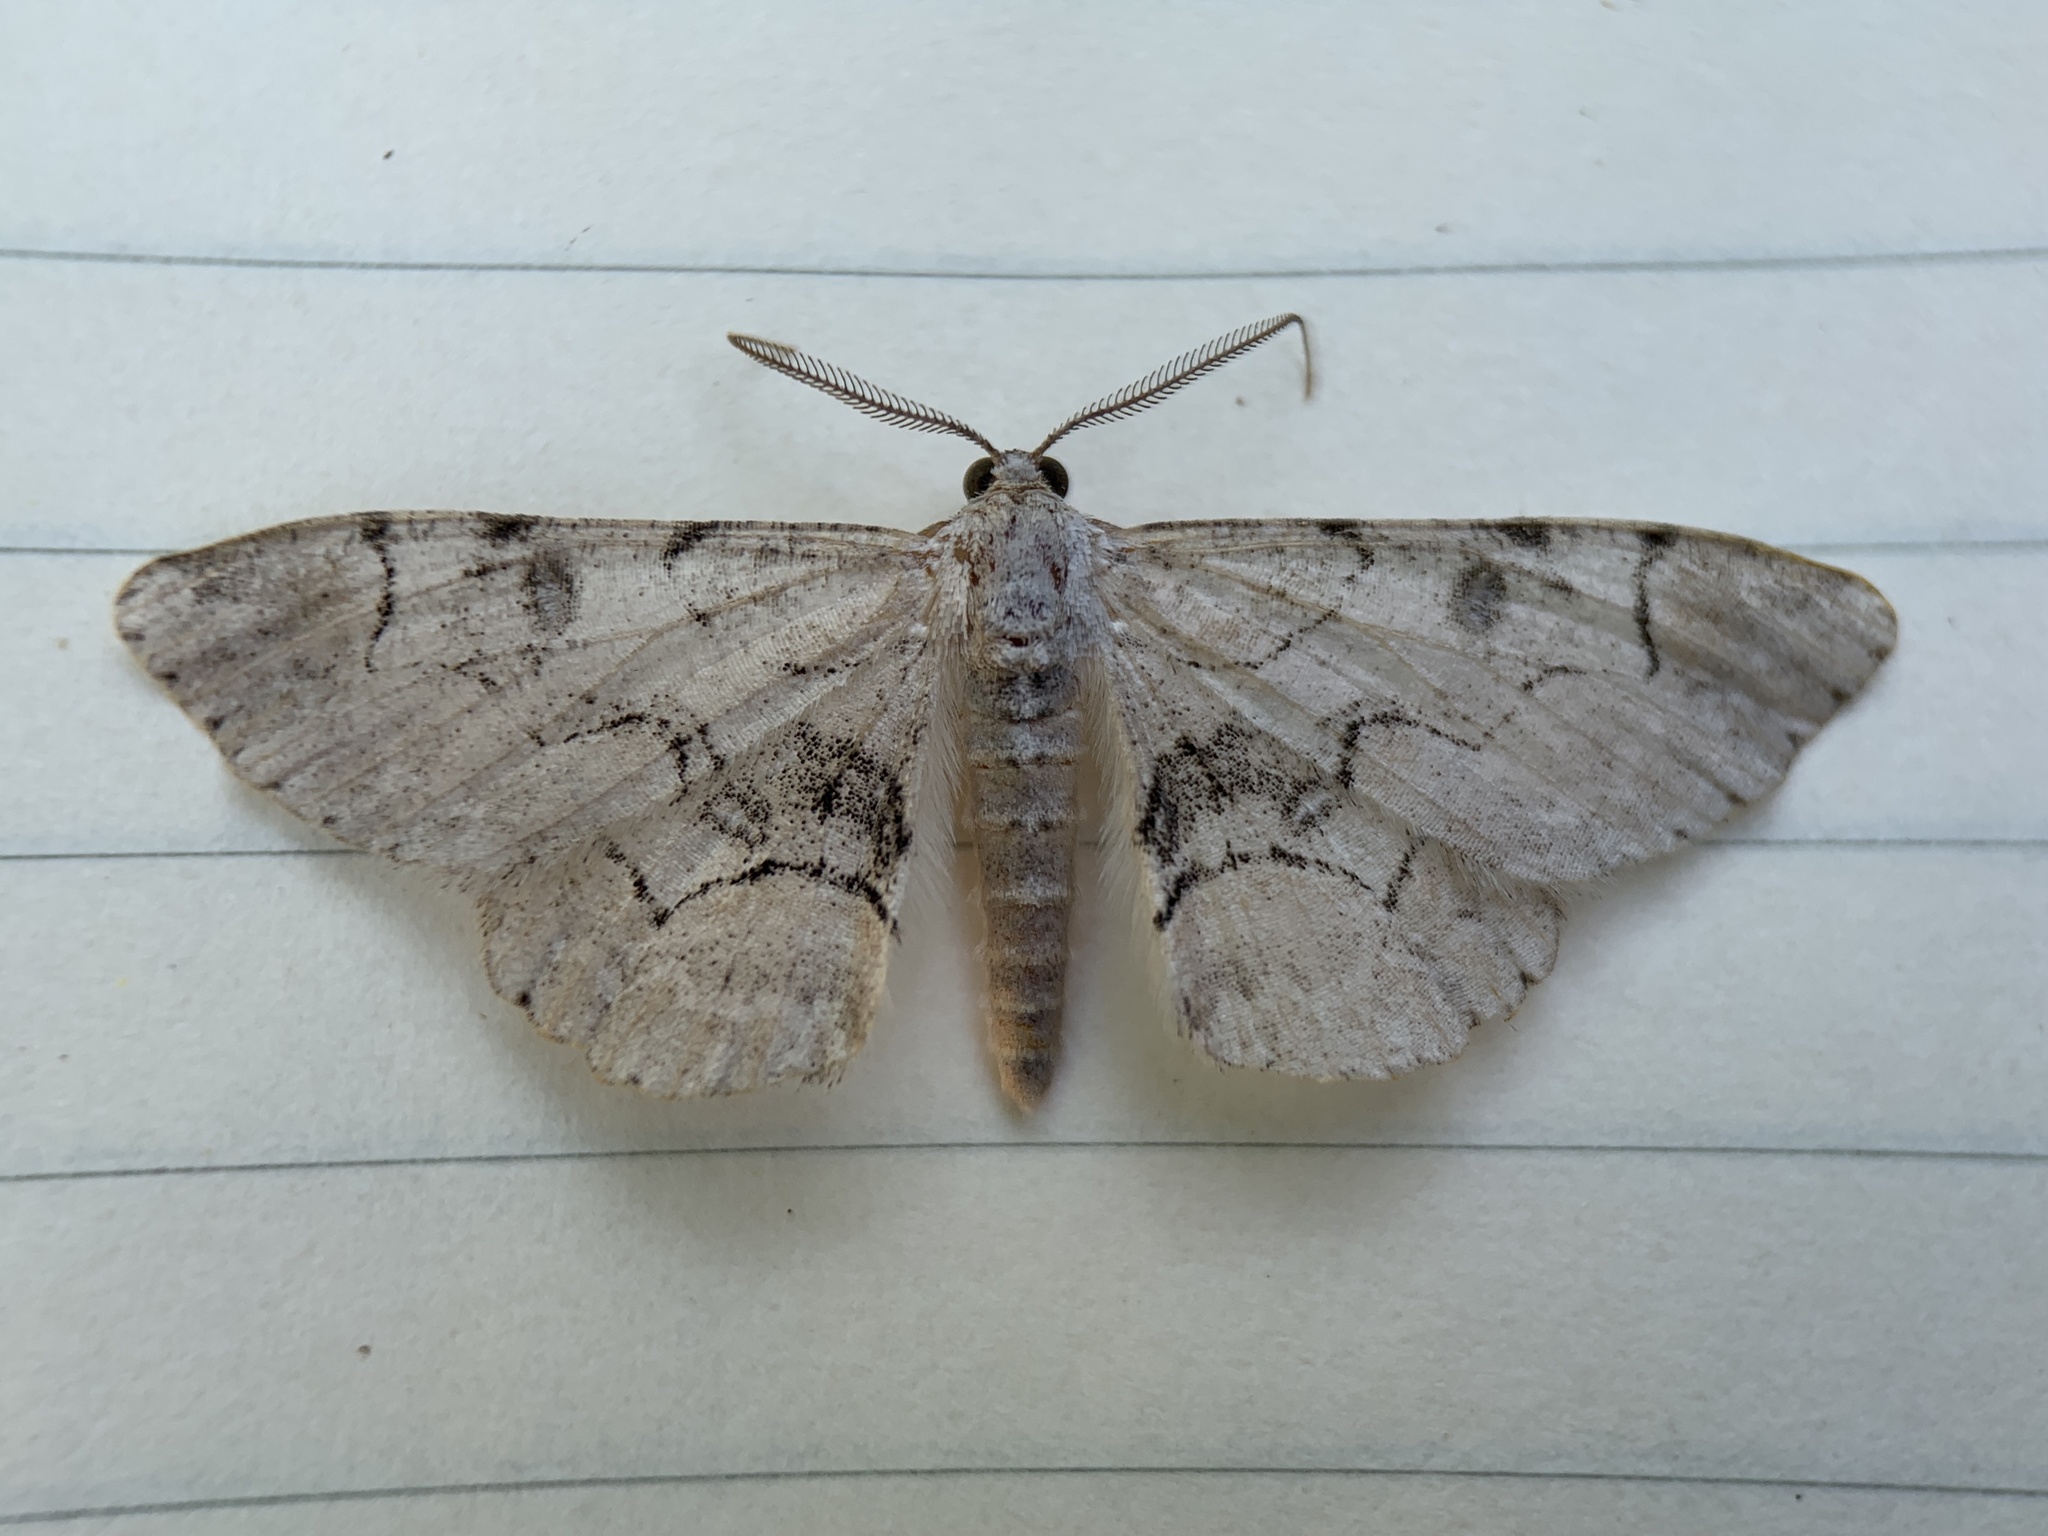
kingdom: Animalia
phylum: Arthropoda
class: Insecta
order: Lepidoptera
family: Geometridae
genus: Iridopsis
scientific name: Iridopsis larvaria
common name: Bent-line gray
